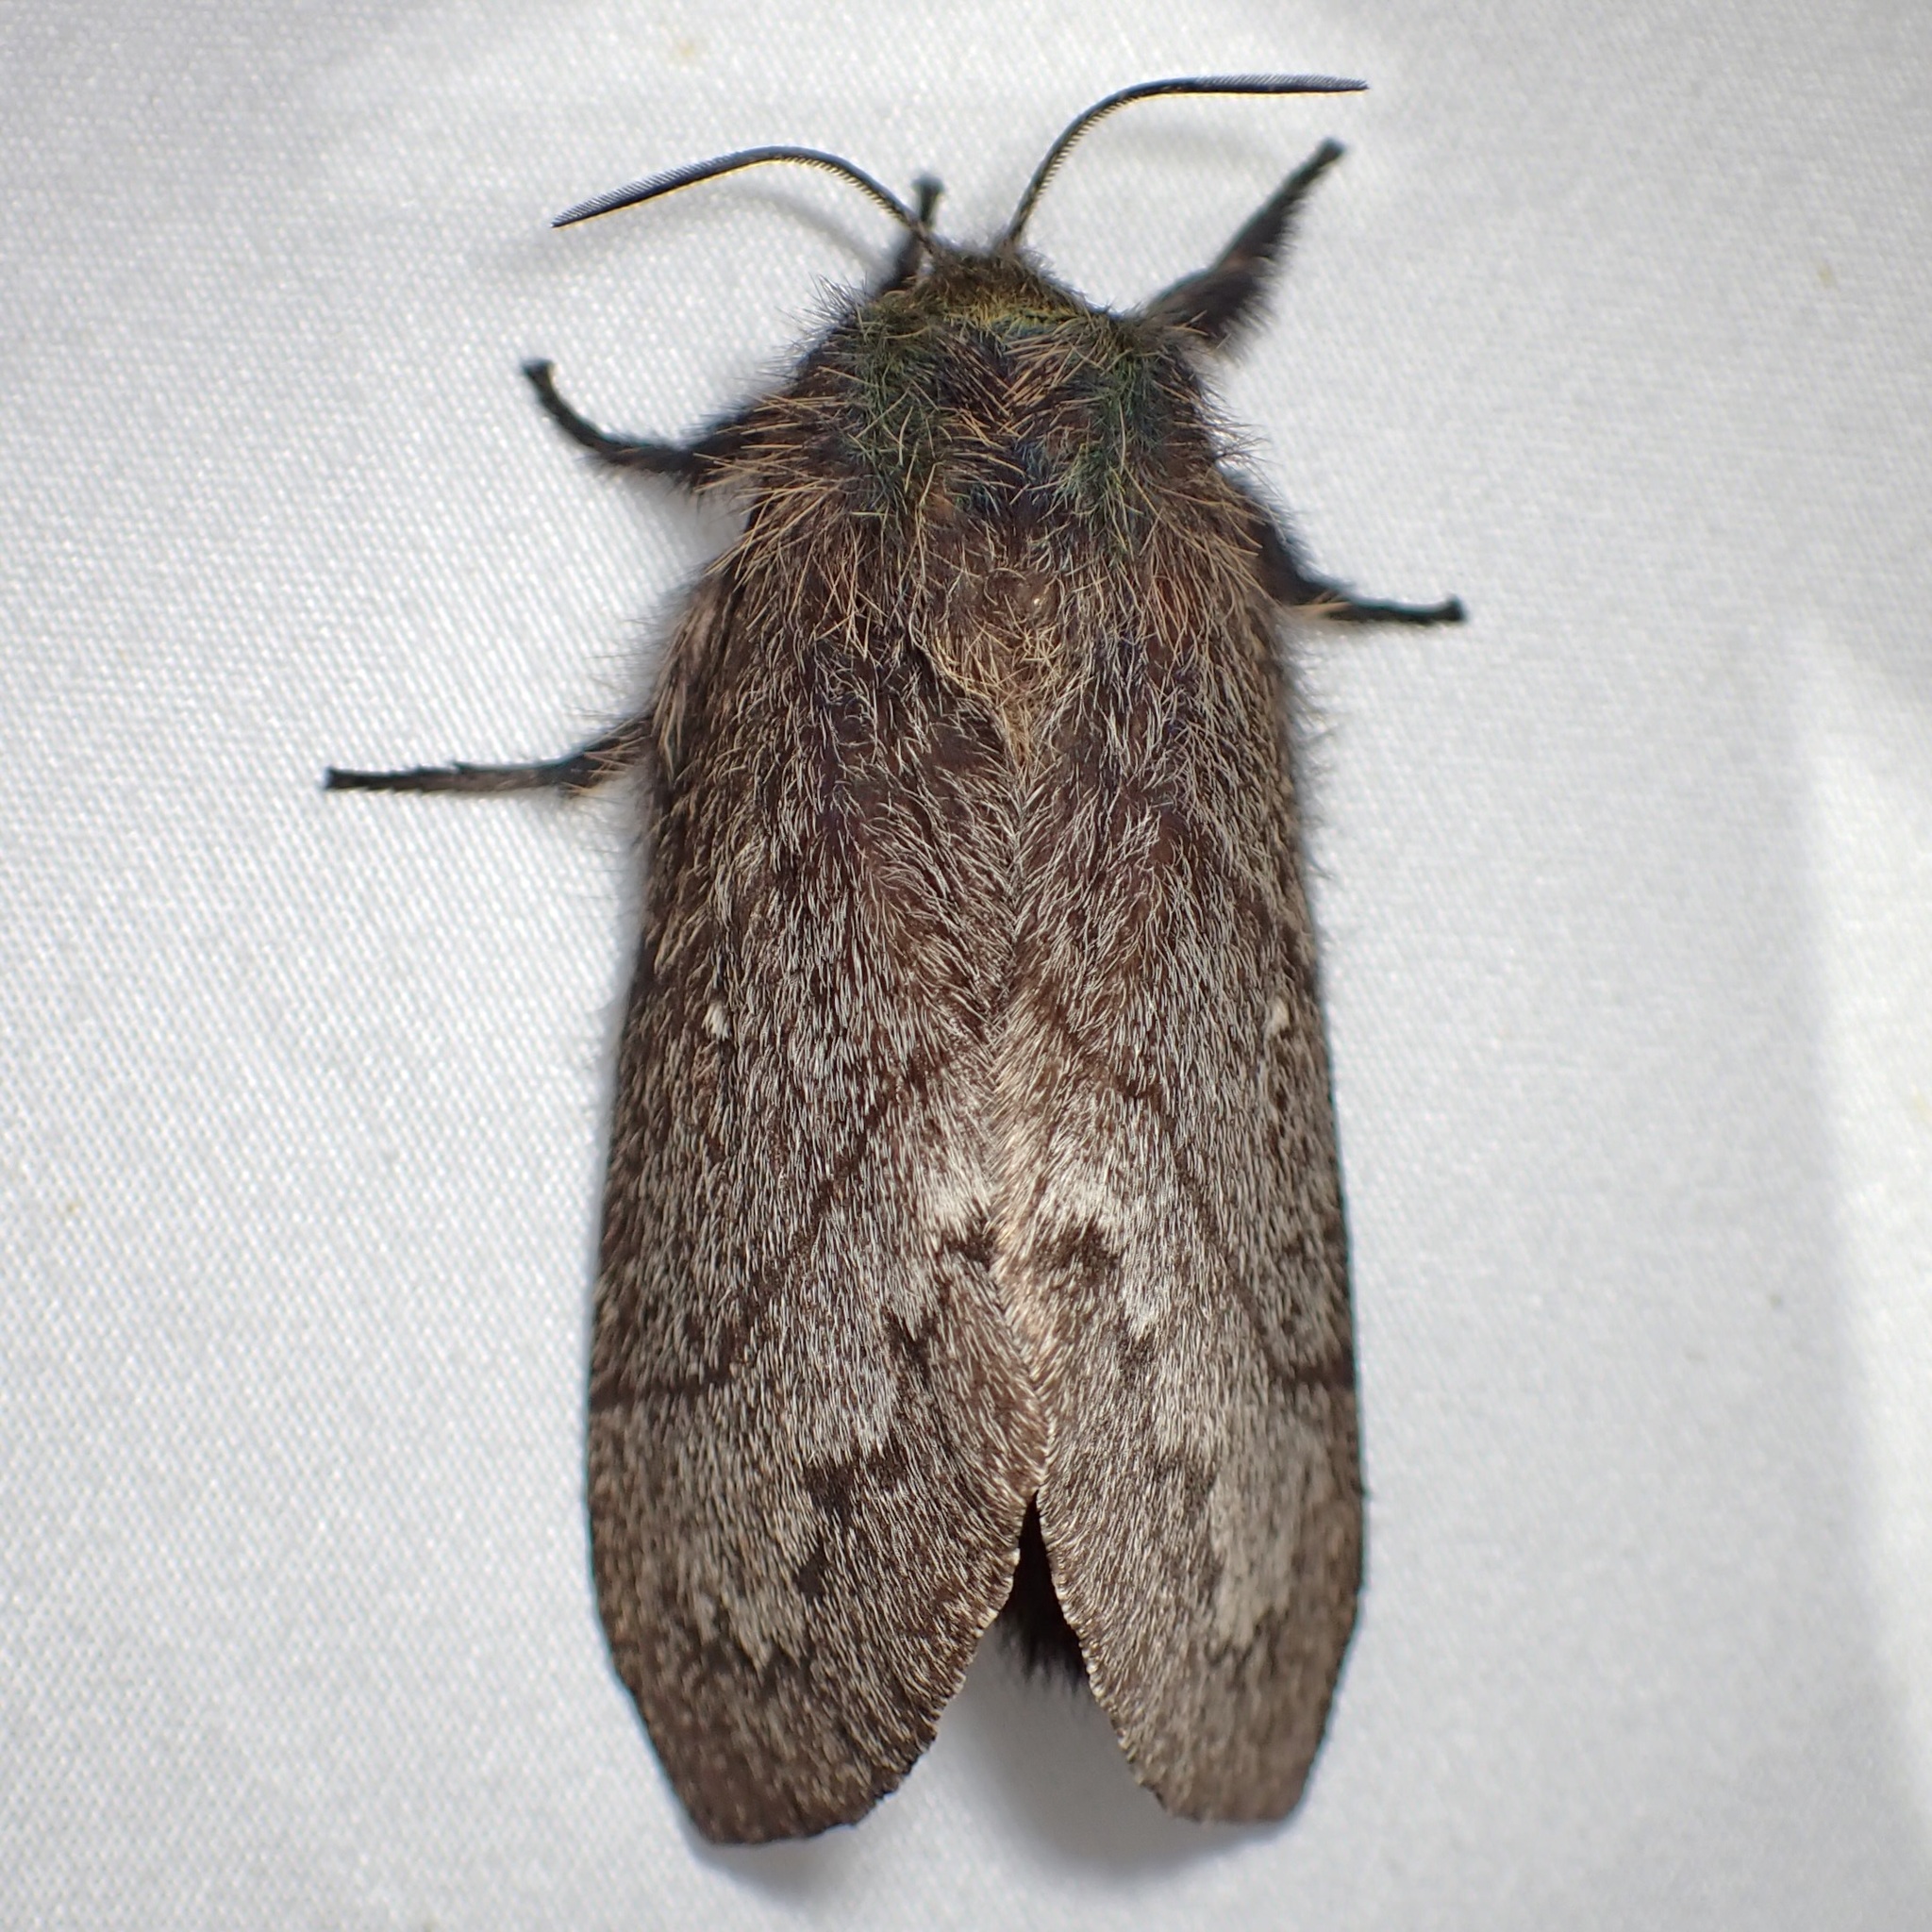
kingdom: Animalia
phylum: Arthropoda
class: Insecta
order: Lepidoptera
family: Lasiocampidae
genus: Gloveria
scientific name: Gloveria gargamelle
